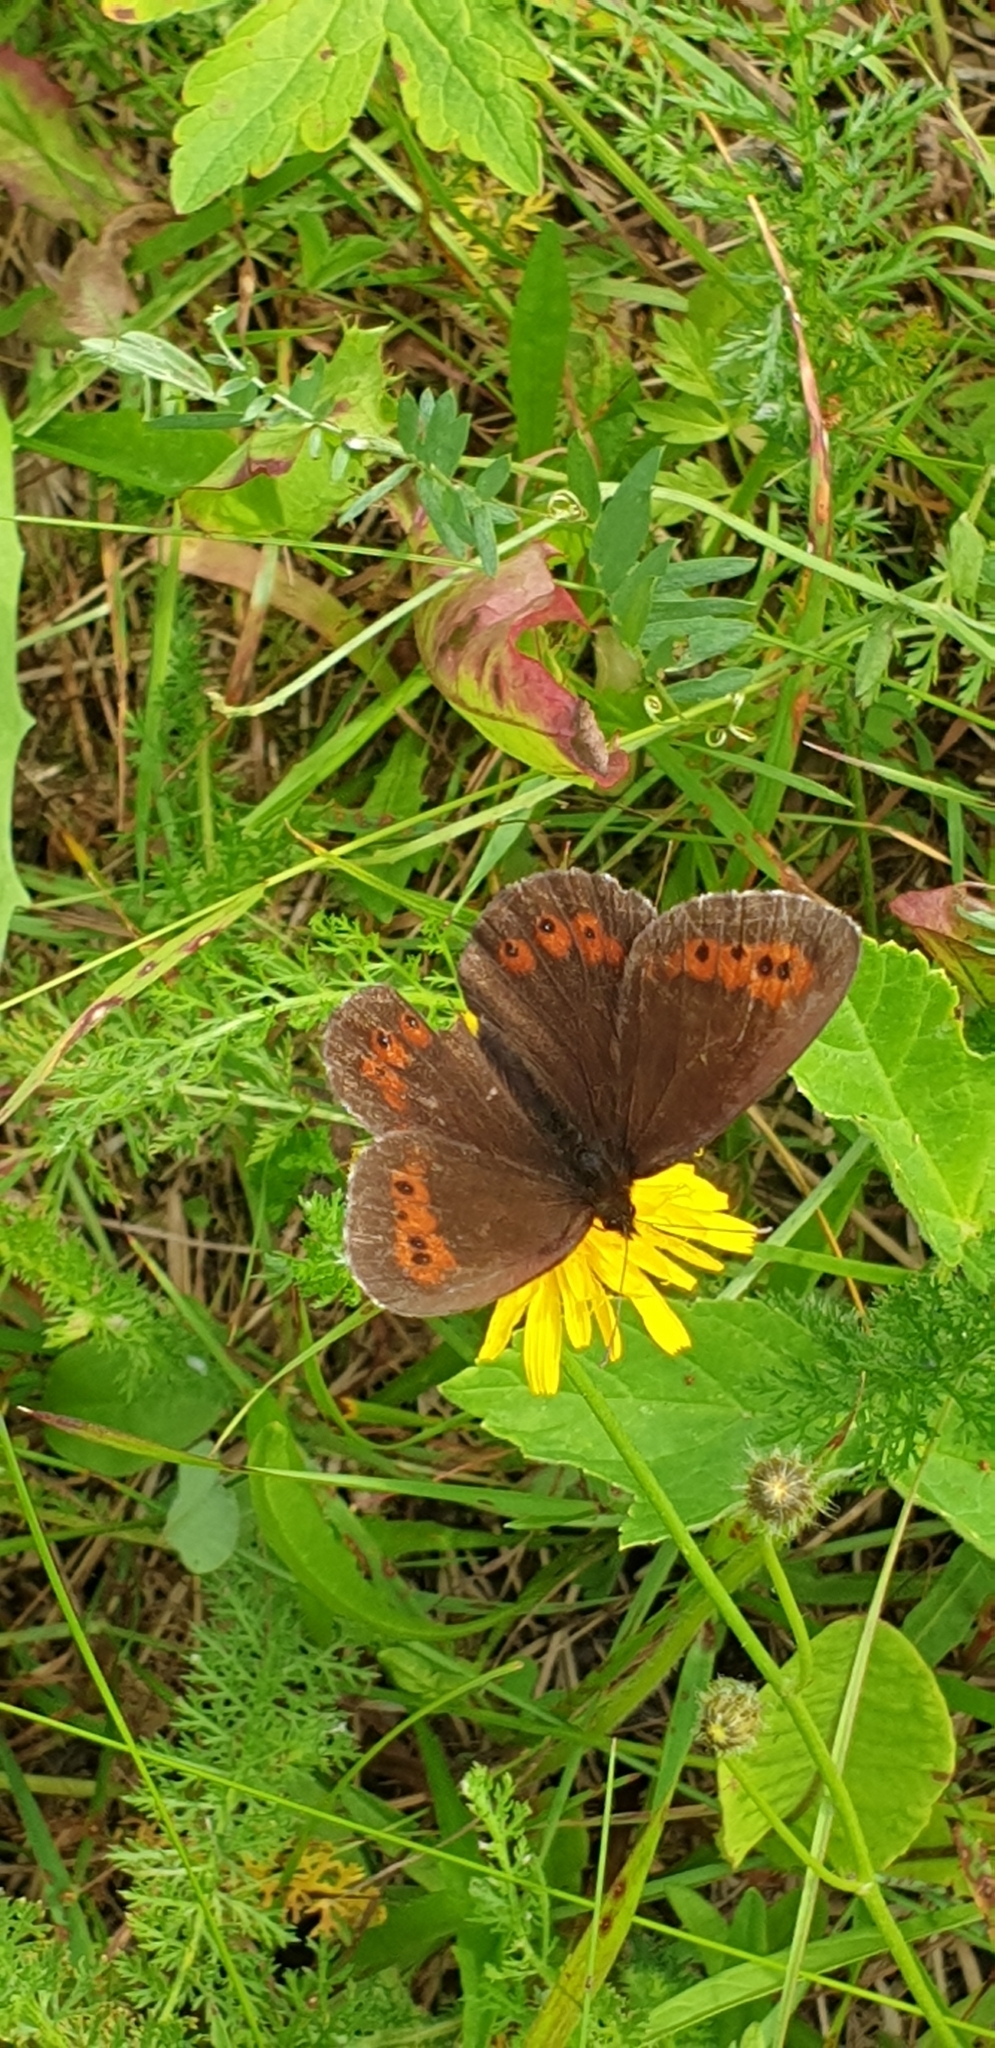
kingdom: Animalia
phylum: Arthropoda
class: Insecta
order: Lepidoptera
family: Nymphalidae
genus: Erebia
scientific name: Erebia ligea
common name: Arran brown
